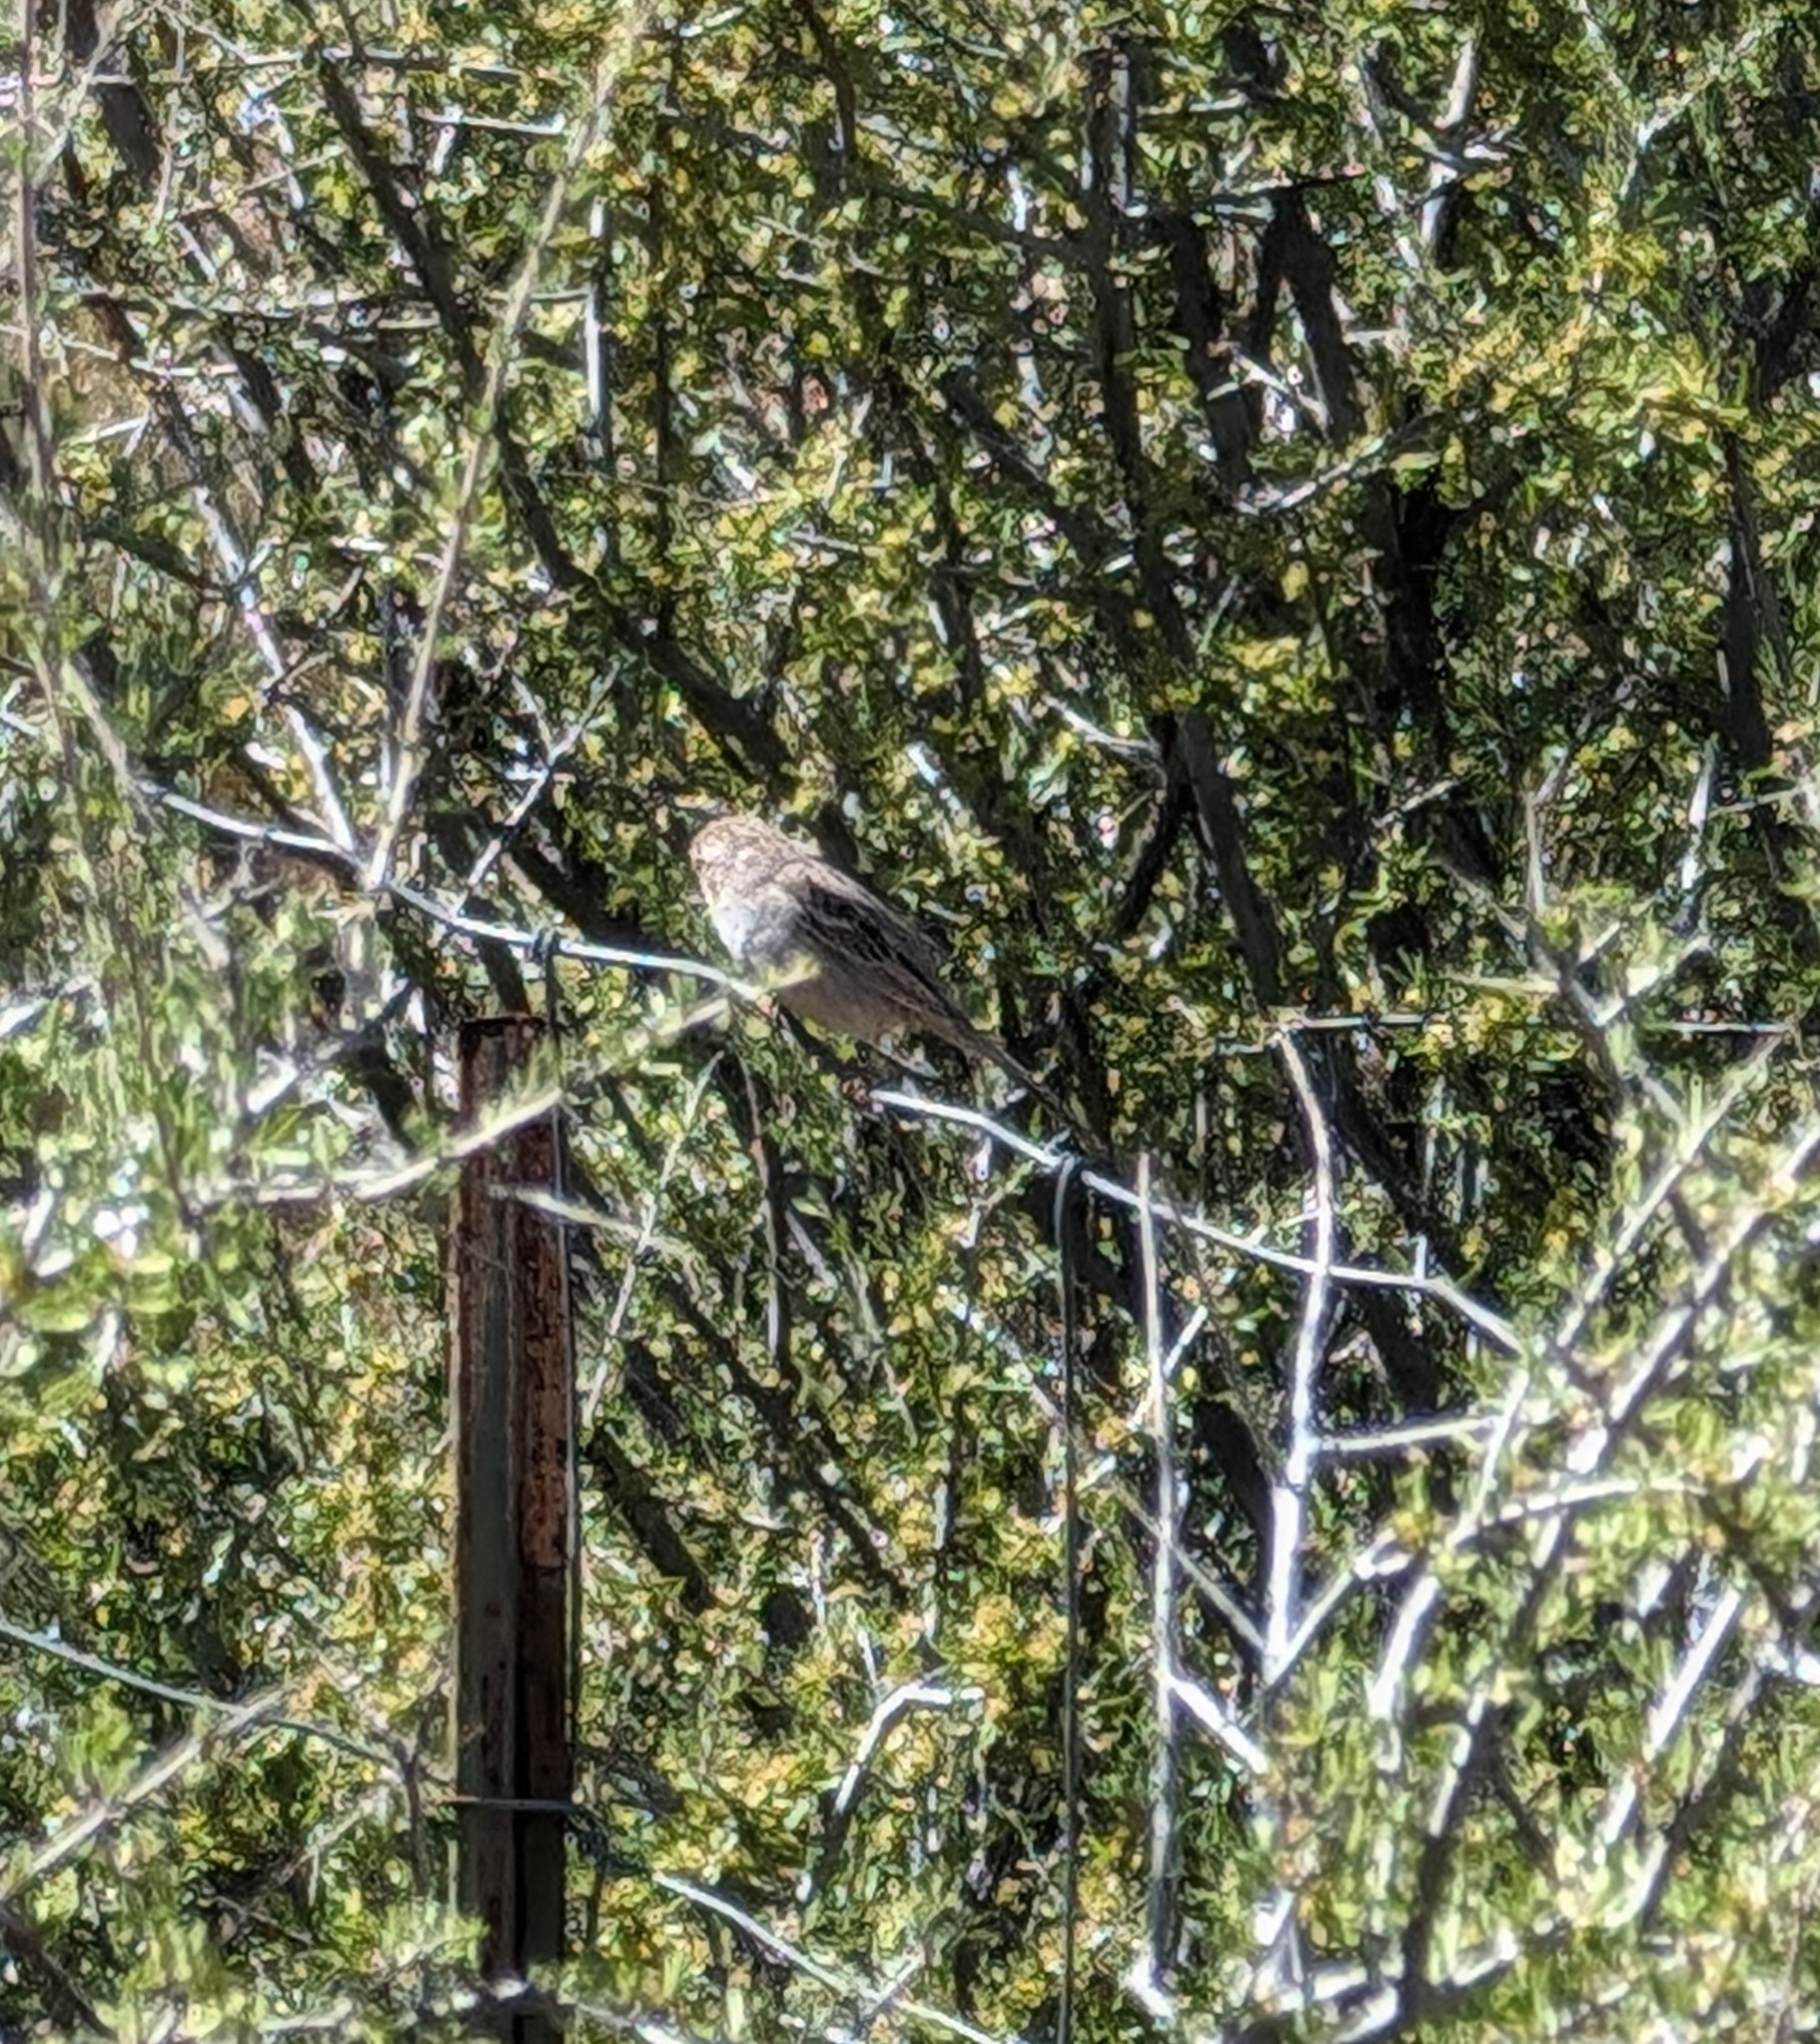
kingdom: Animalia
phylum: Chordata
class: Aves
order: Passeriformes
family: Passerellidae
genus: Spizella
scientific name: Spizella breweri
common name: Brewer's sparrow
